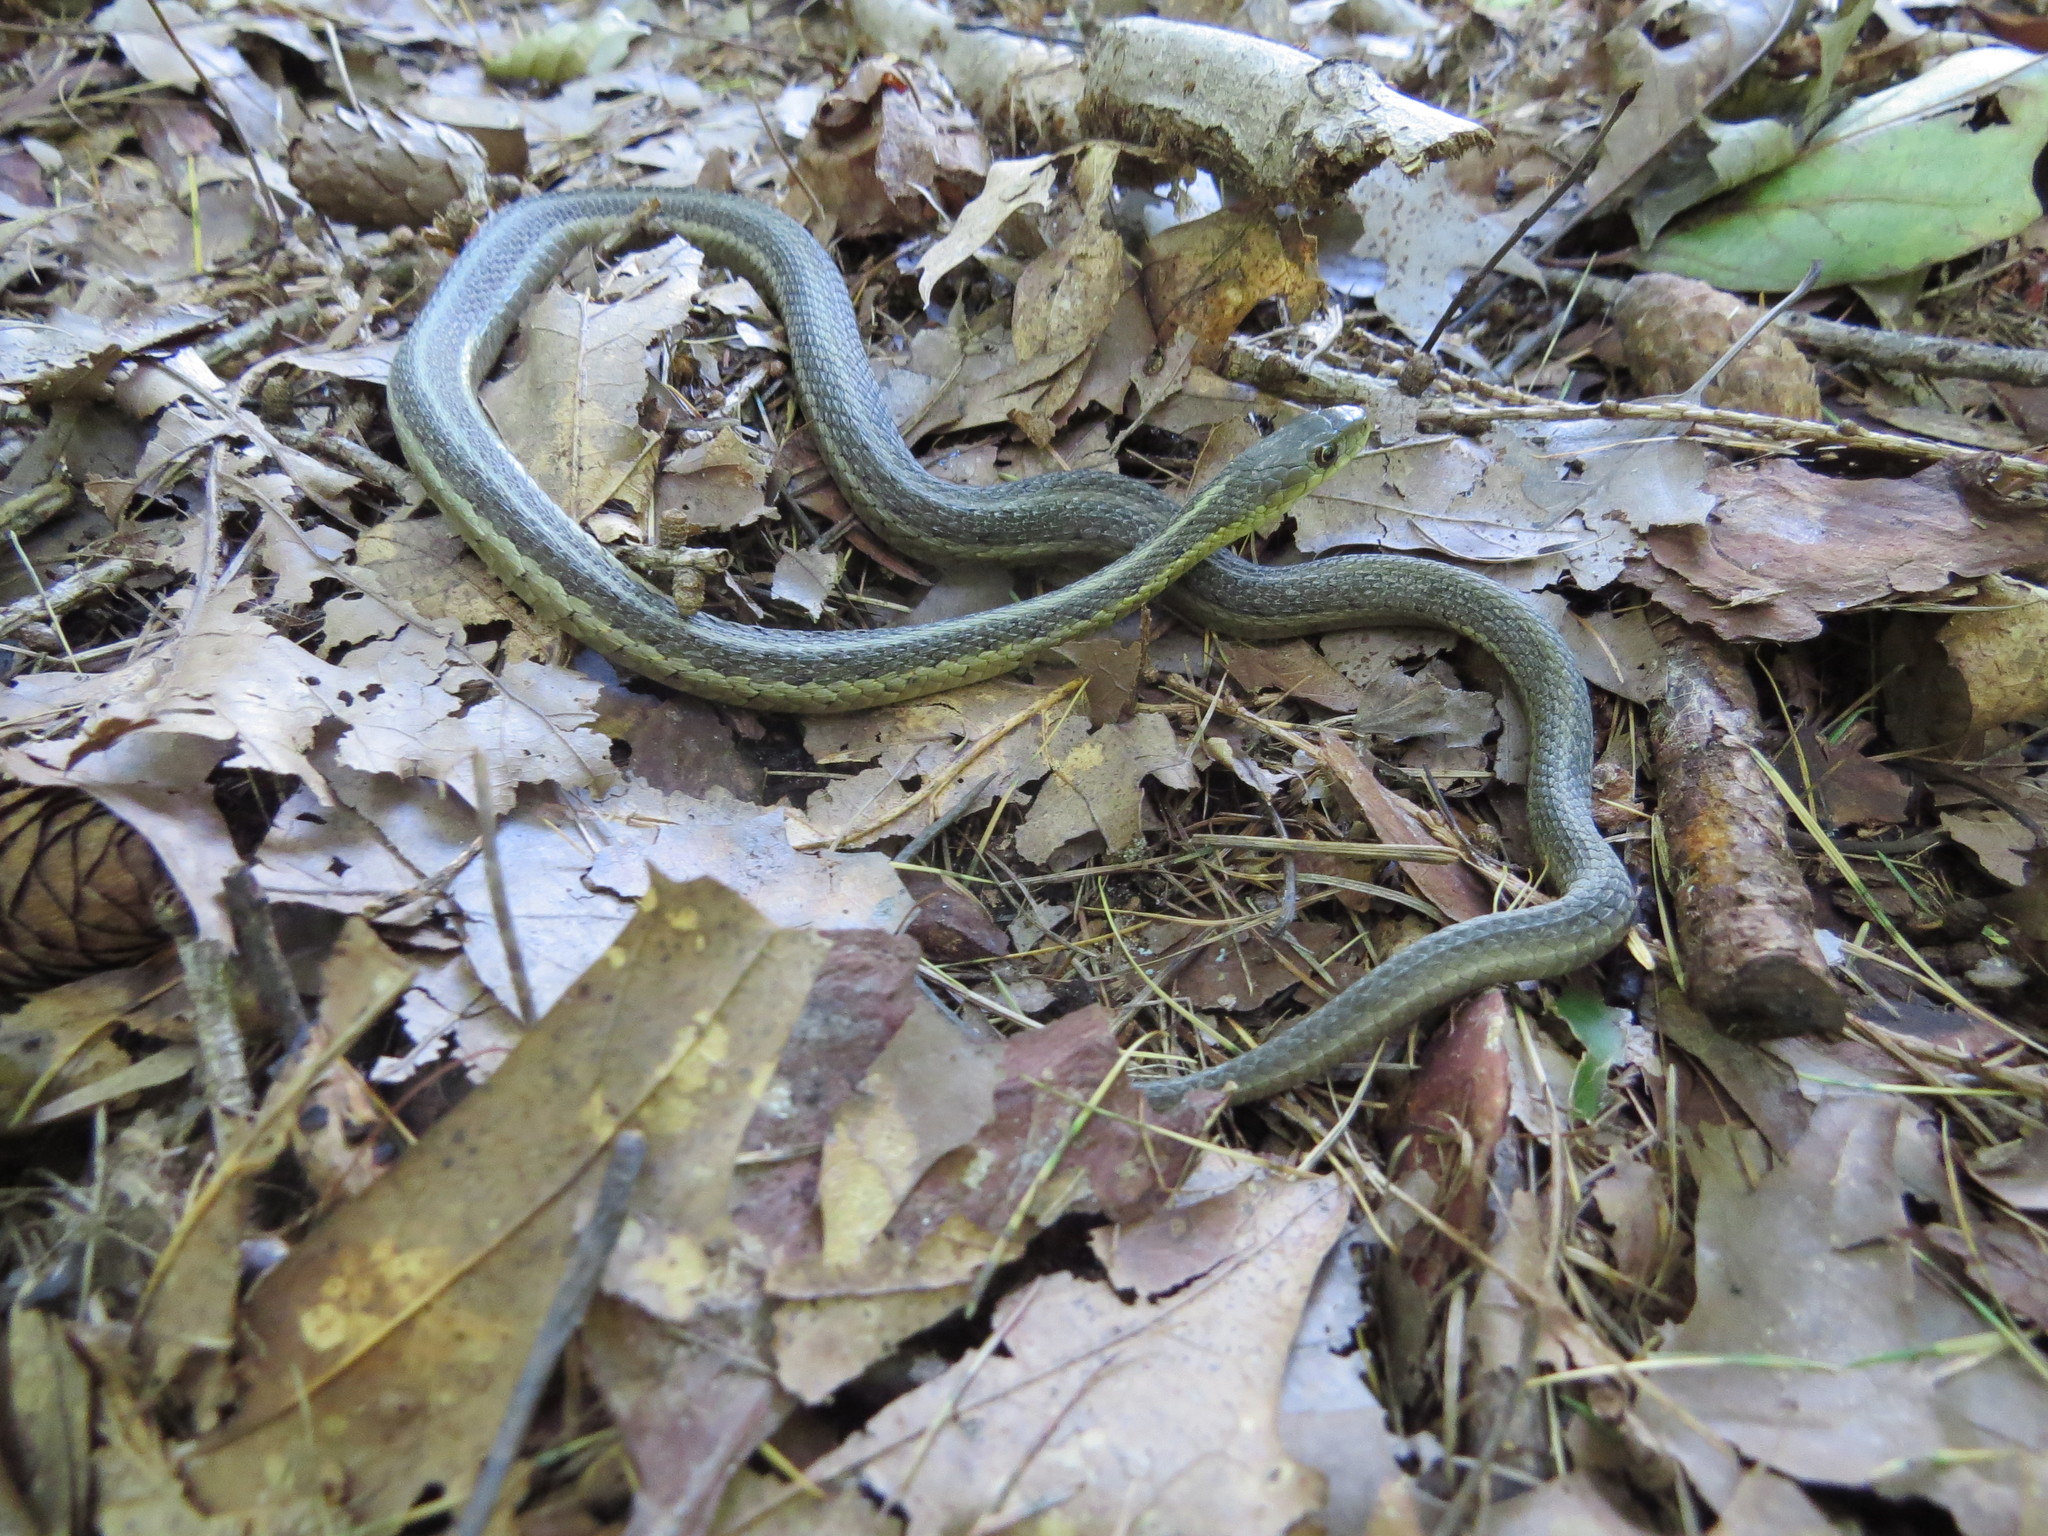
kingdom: Animalia
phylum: Chordata
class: Squamata
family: Colubridae
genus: Thamnophis
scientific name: Thamnophis sirtalis
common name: Common garter snake
